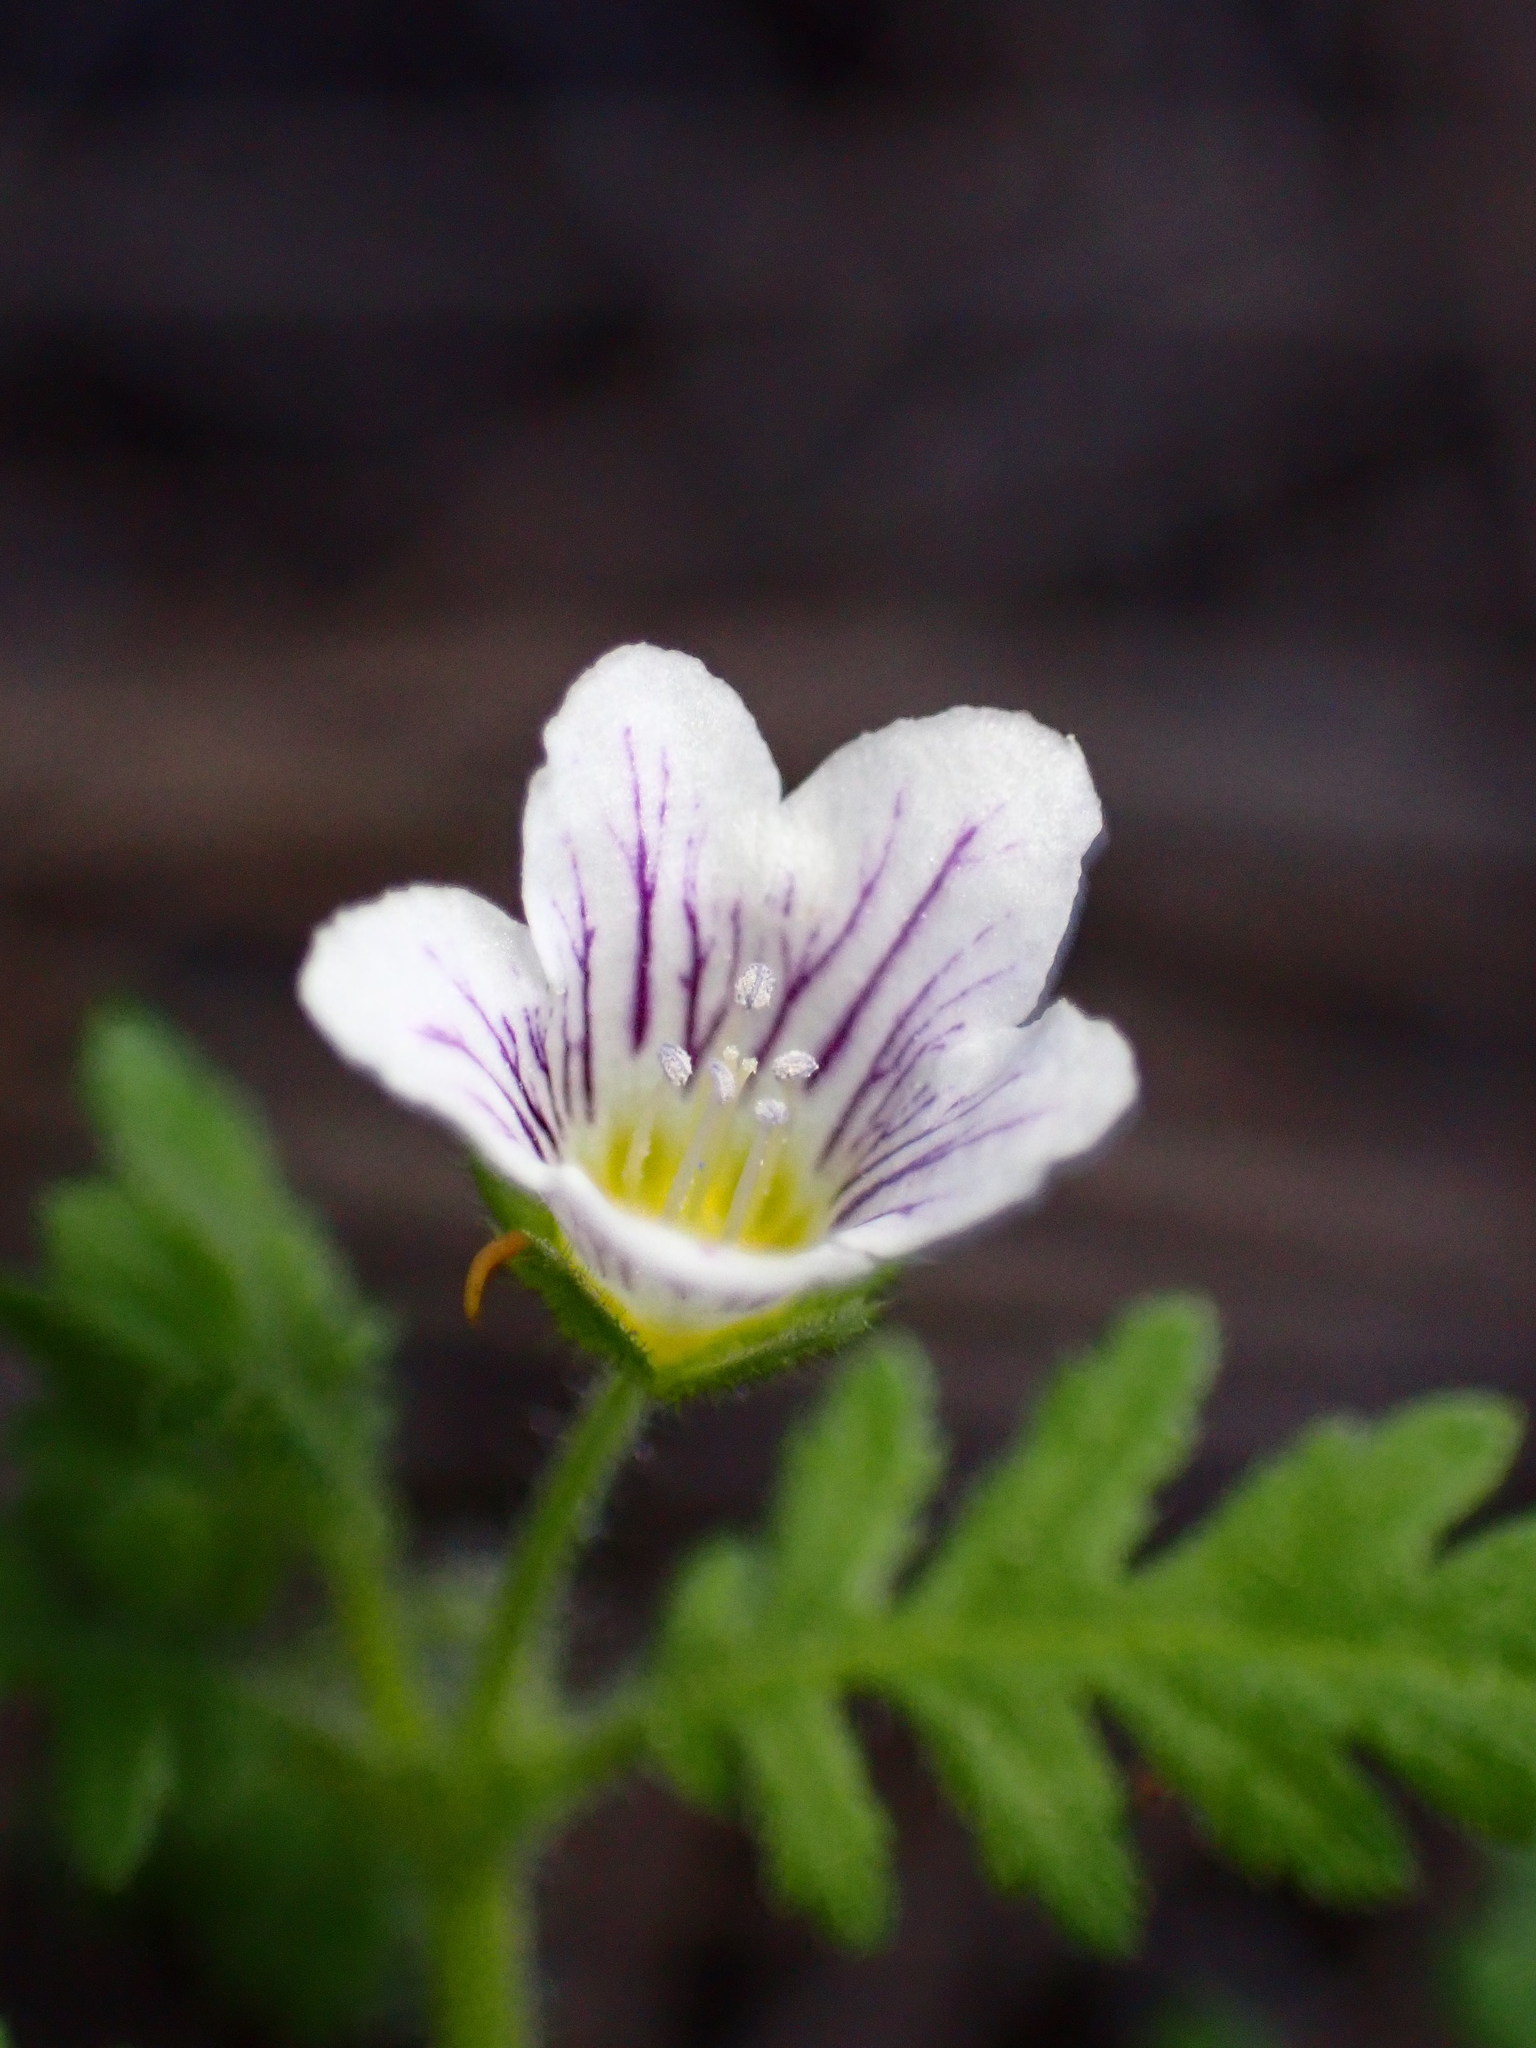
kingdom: Plantae
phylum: Tracheophyta
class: Magnoliopsida
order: Boraginales
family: Hydrophyllaceae
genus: Eucrypta
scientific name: Eucrypta chrysanthemifolia
